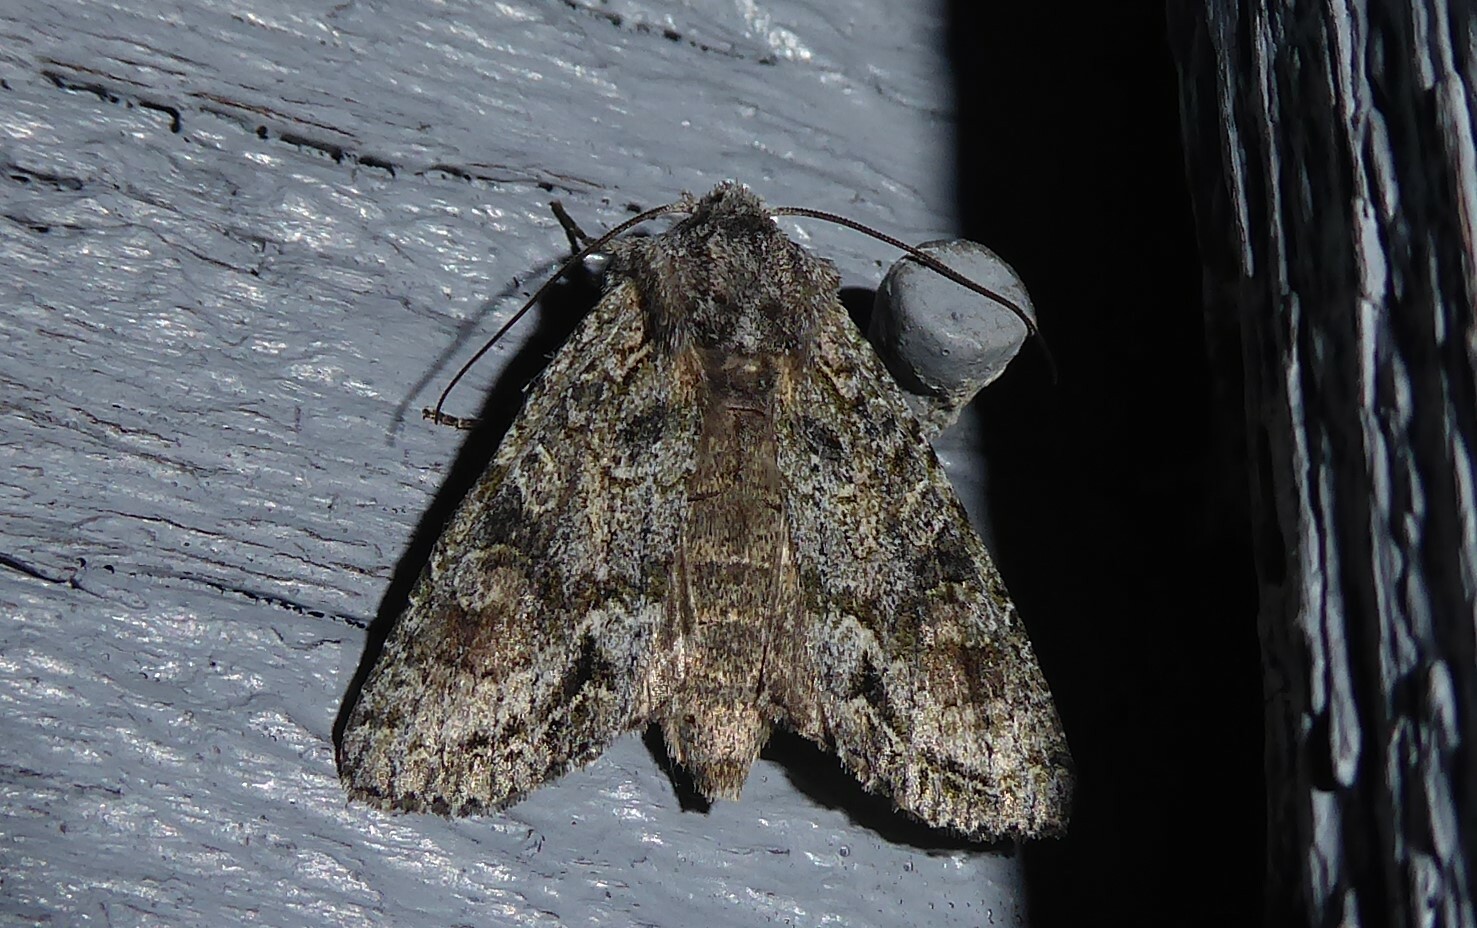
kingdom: Animalia
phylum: Arthropoda
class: Insecta
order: Lepidoptera
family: Noctuidae
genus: Ichneutica
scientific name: Ichneutica mutans
